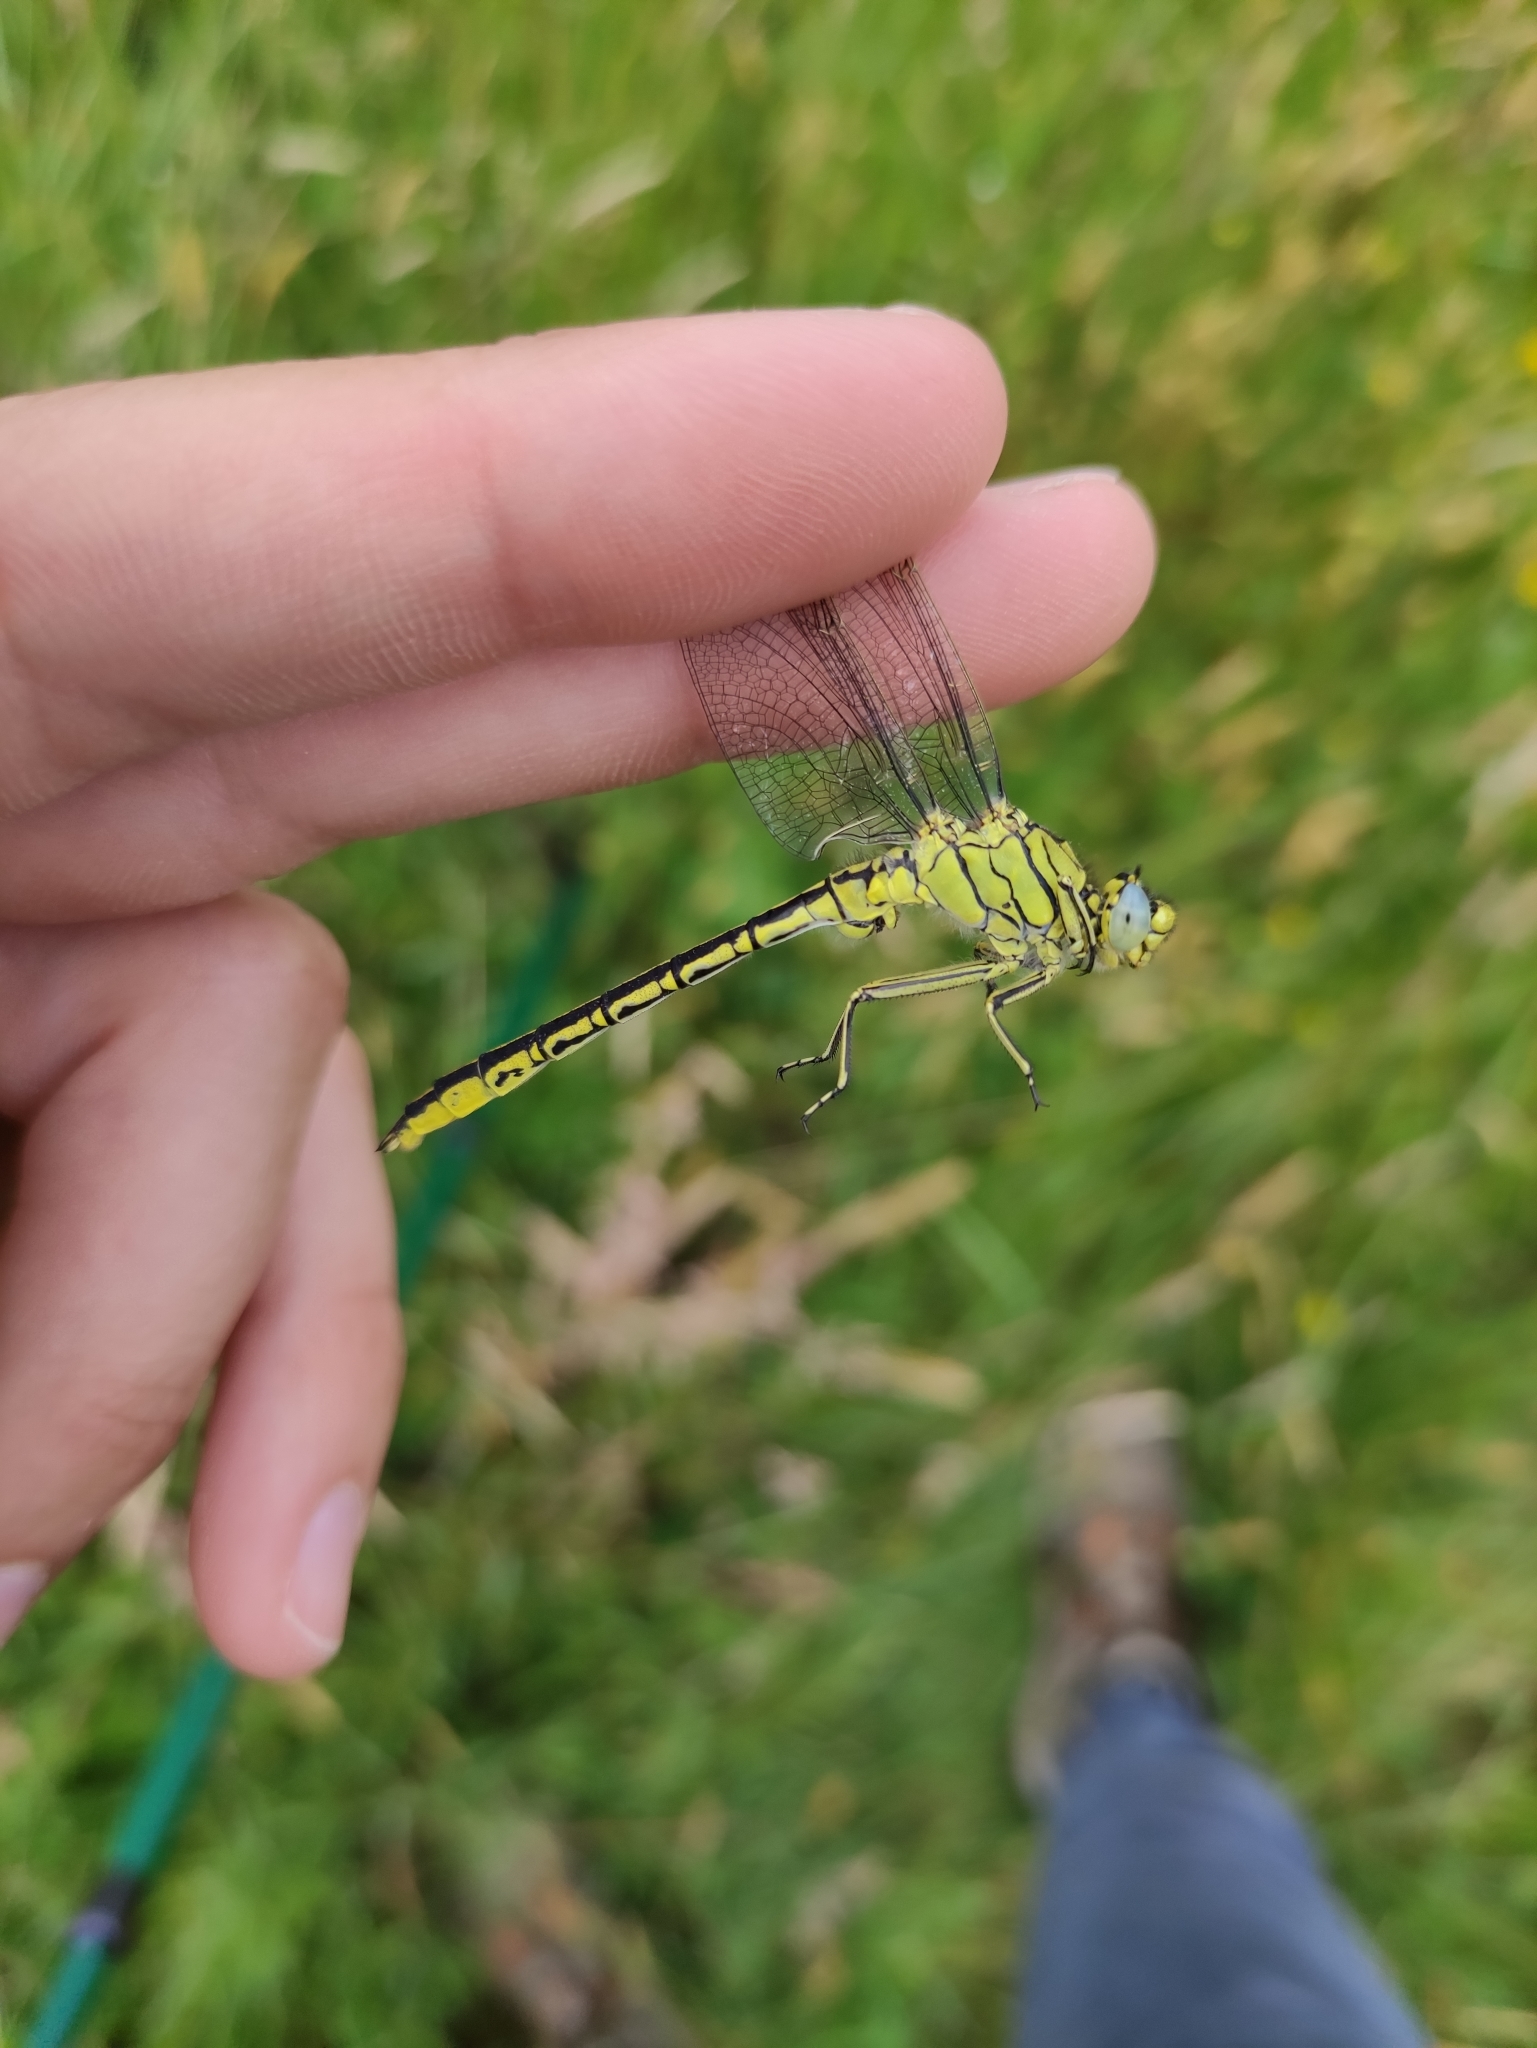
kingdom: Animalia
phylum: Arthropoda
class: Insecta
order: Odonata
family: Gomphidae
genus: Gomphus
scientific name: Gomphus pulchellus
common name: Western clubtail
